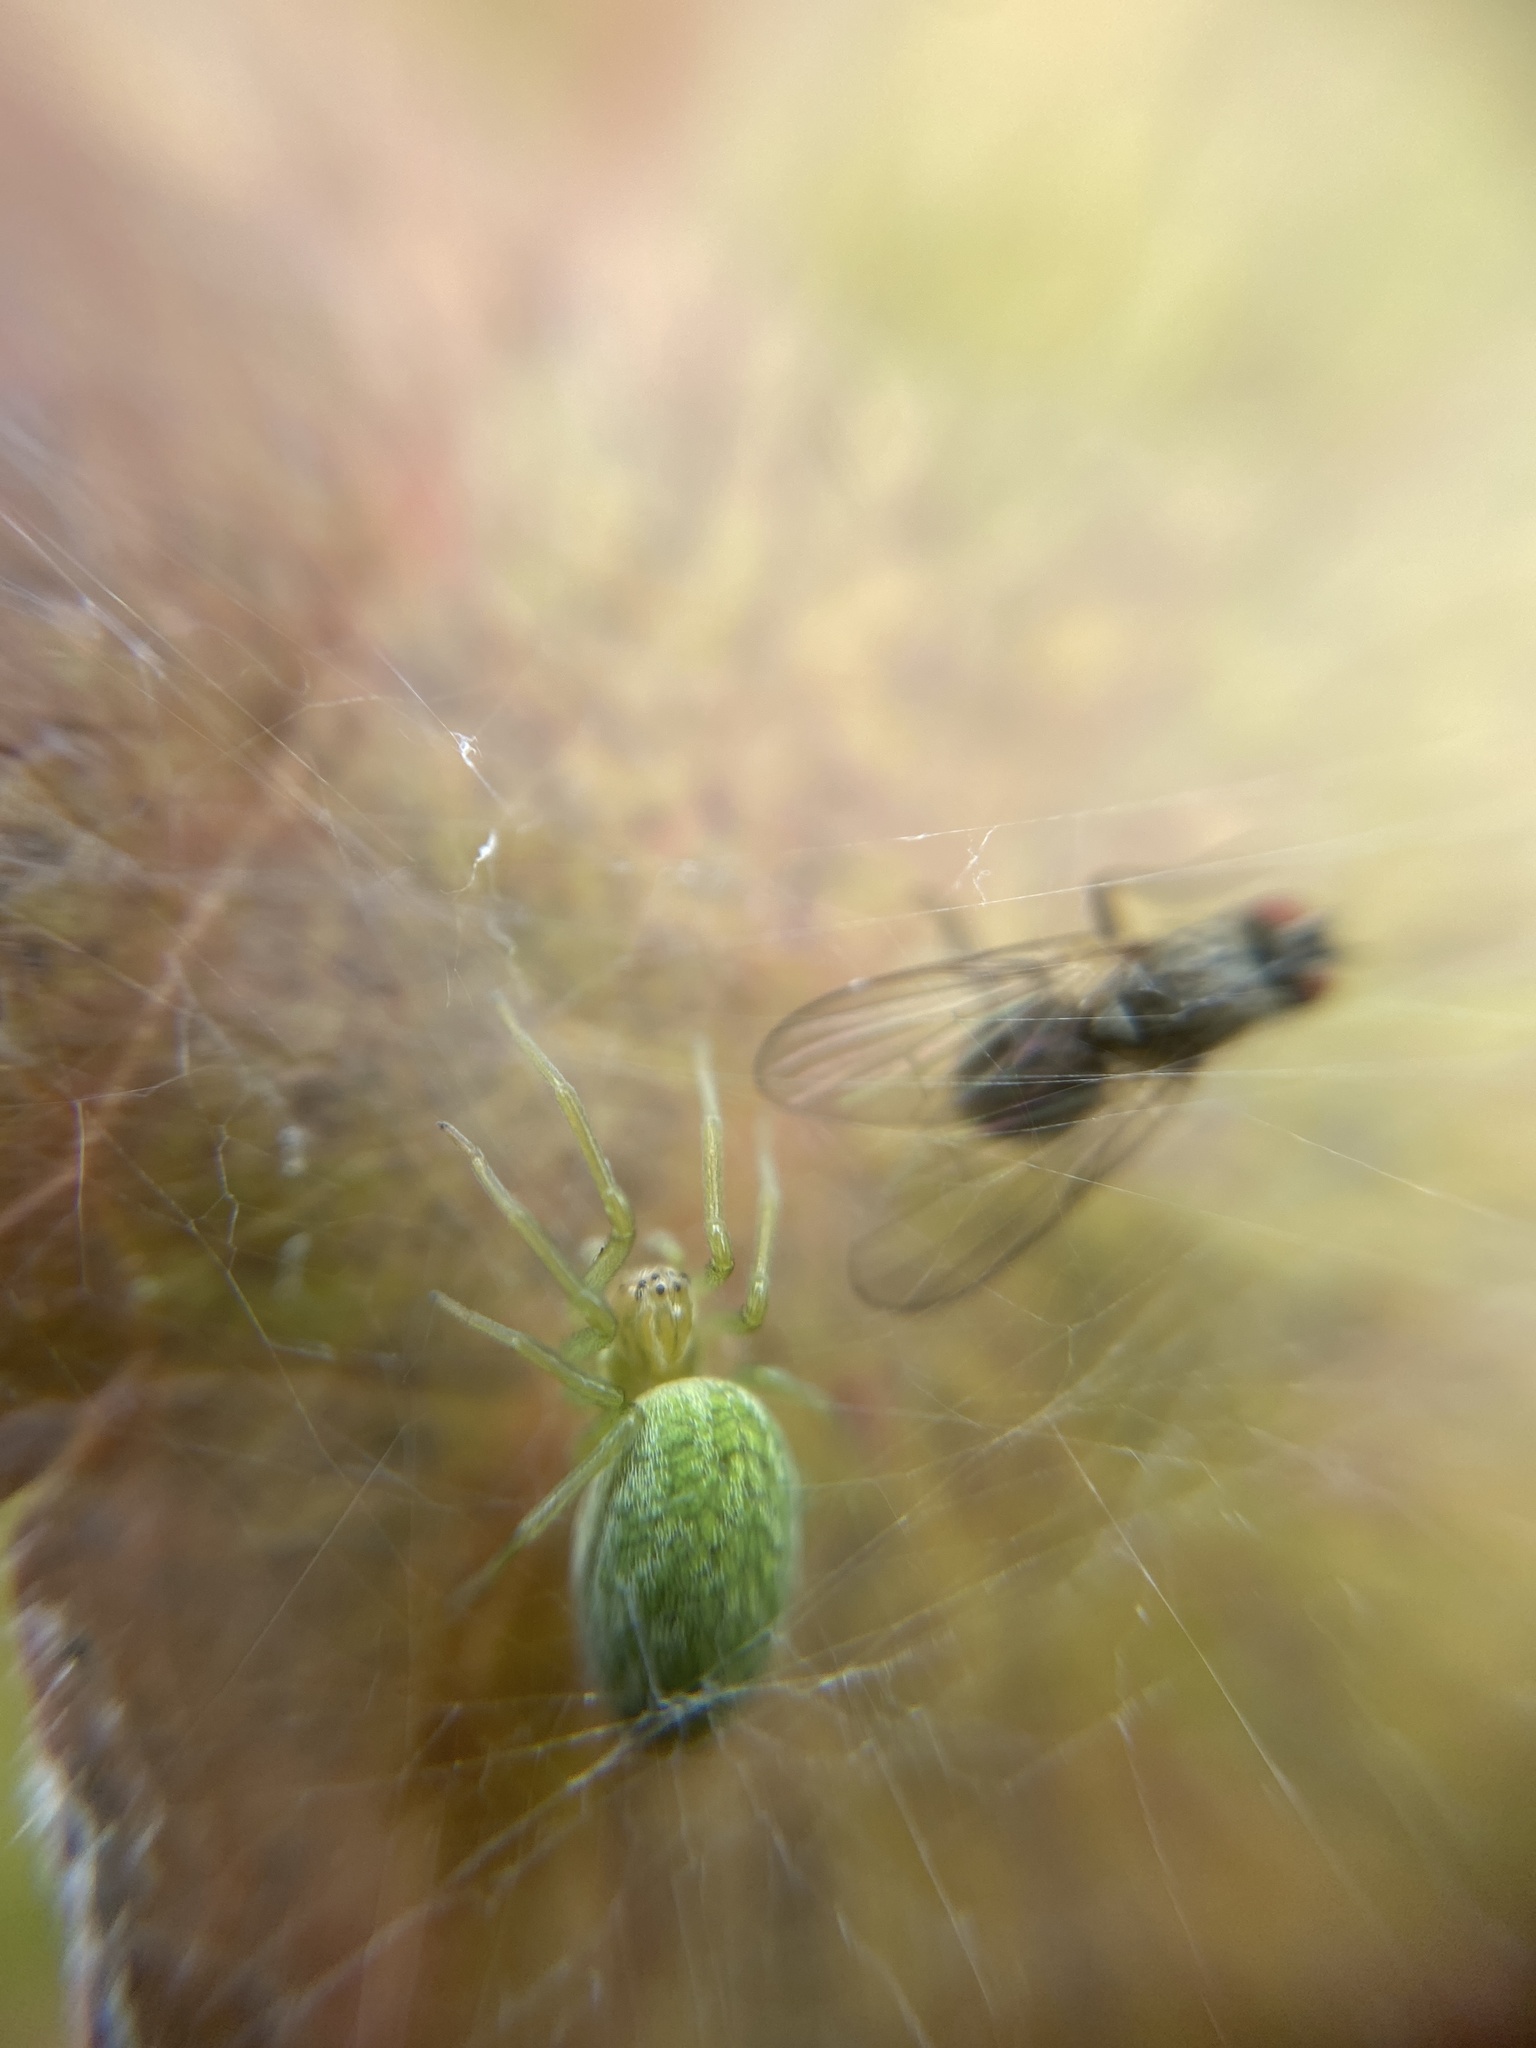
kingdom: Animalia
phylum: Arthropoda
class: Arachnida
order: Araneae
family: Dictynidae
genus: Nigma
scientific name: Nigma walckenaeri
